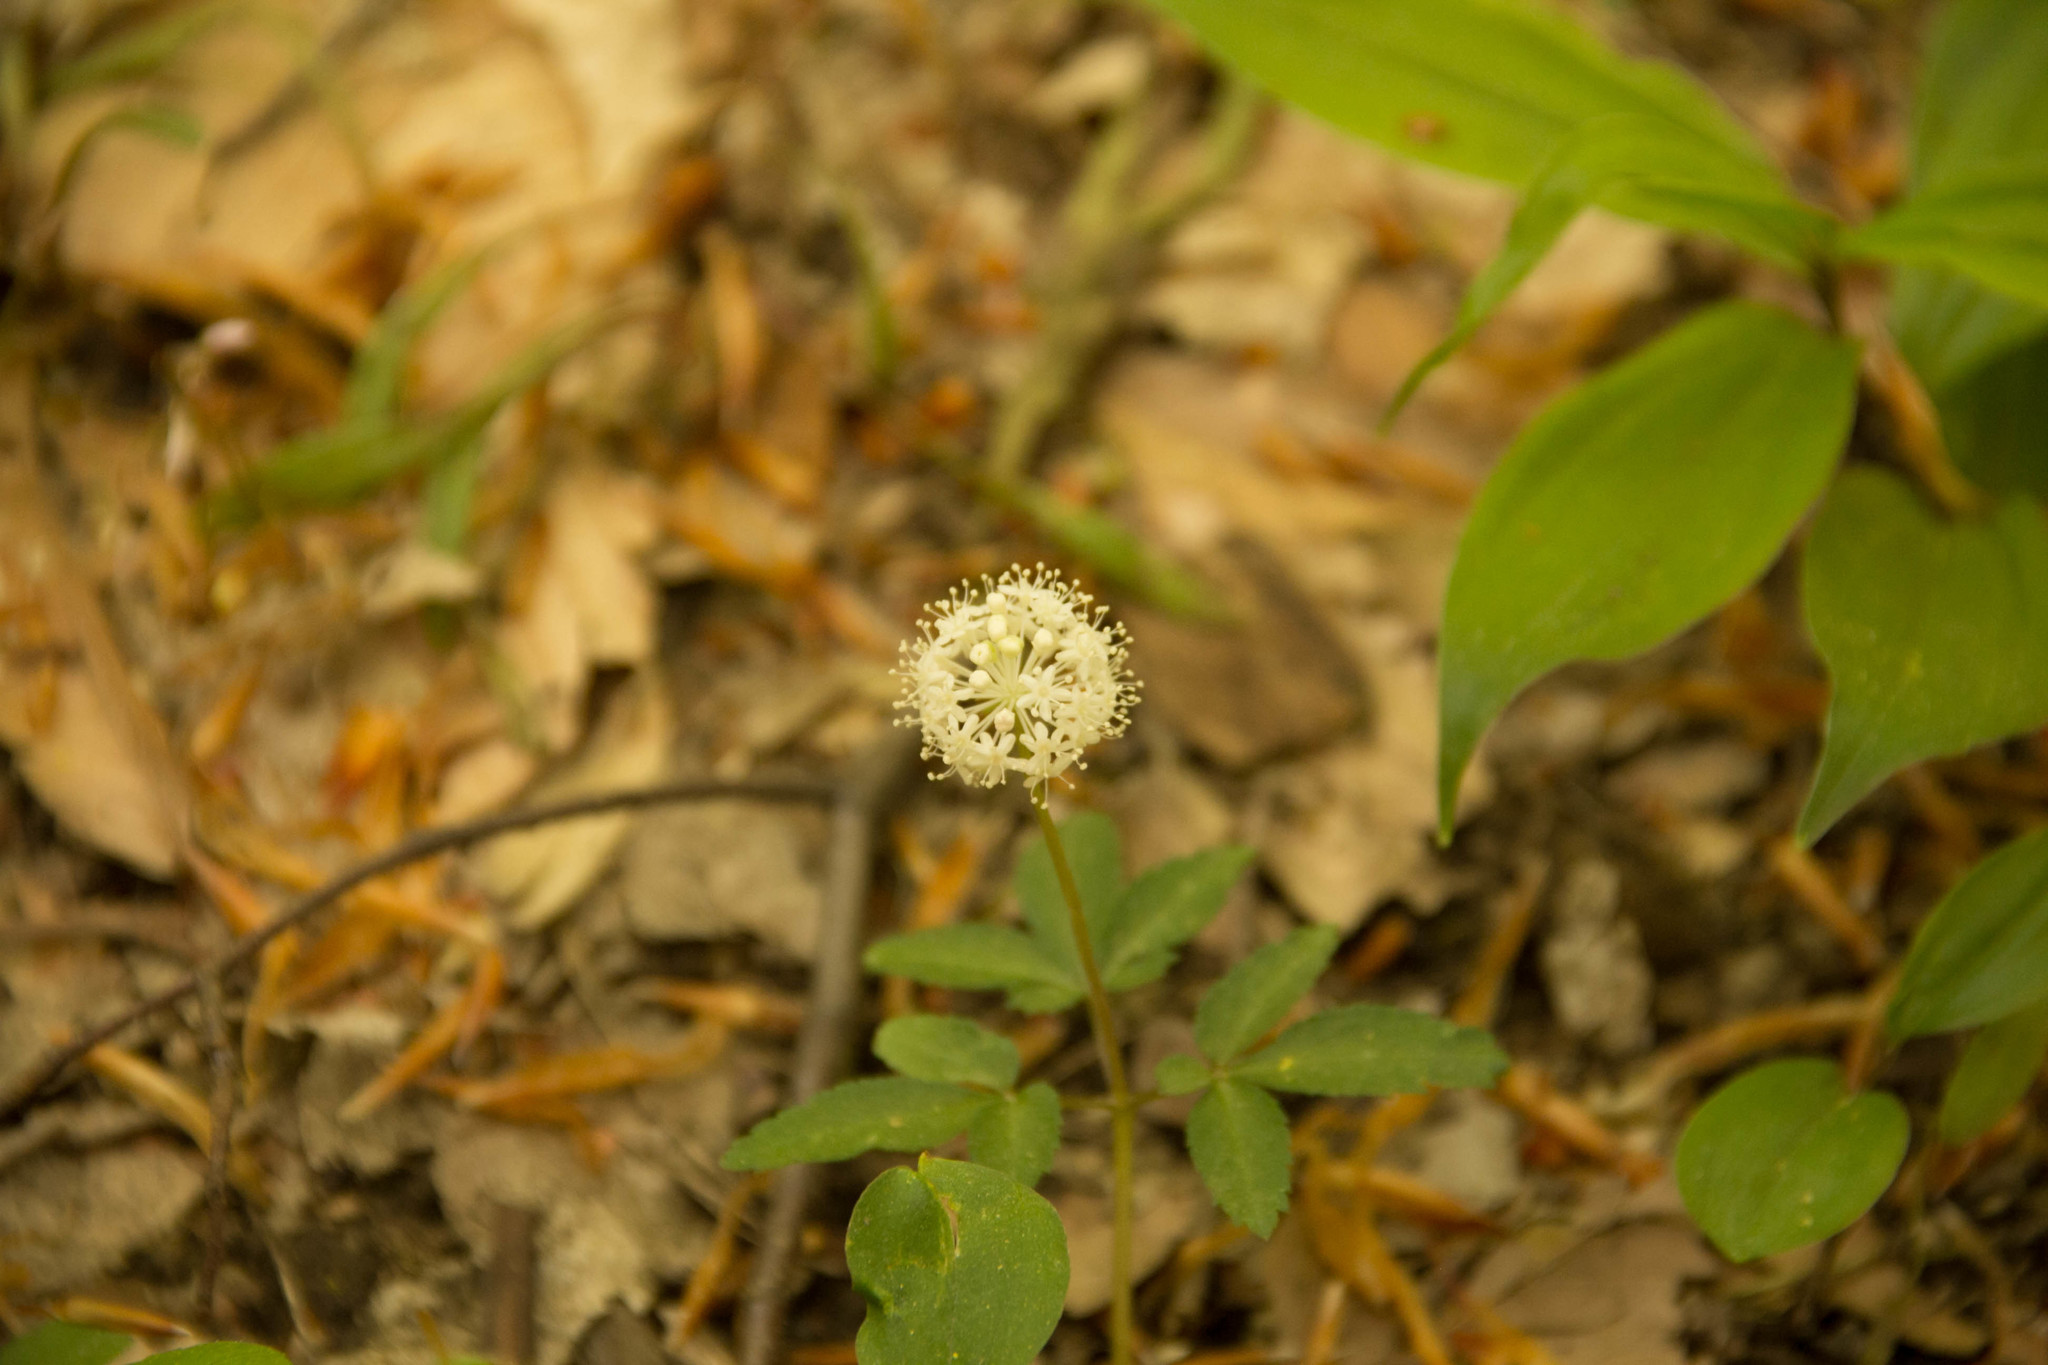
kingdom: Plantae
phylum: Tracheophyta
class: Magnoliopsida
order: Apiales
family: Araliaceae
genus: Panax
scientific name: Panax trifolius
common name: Dwarf ginseng
